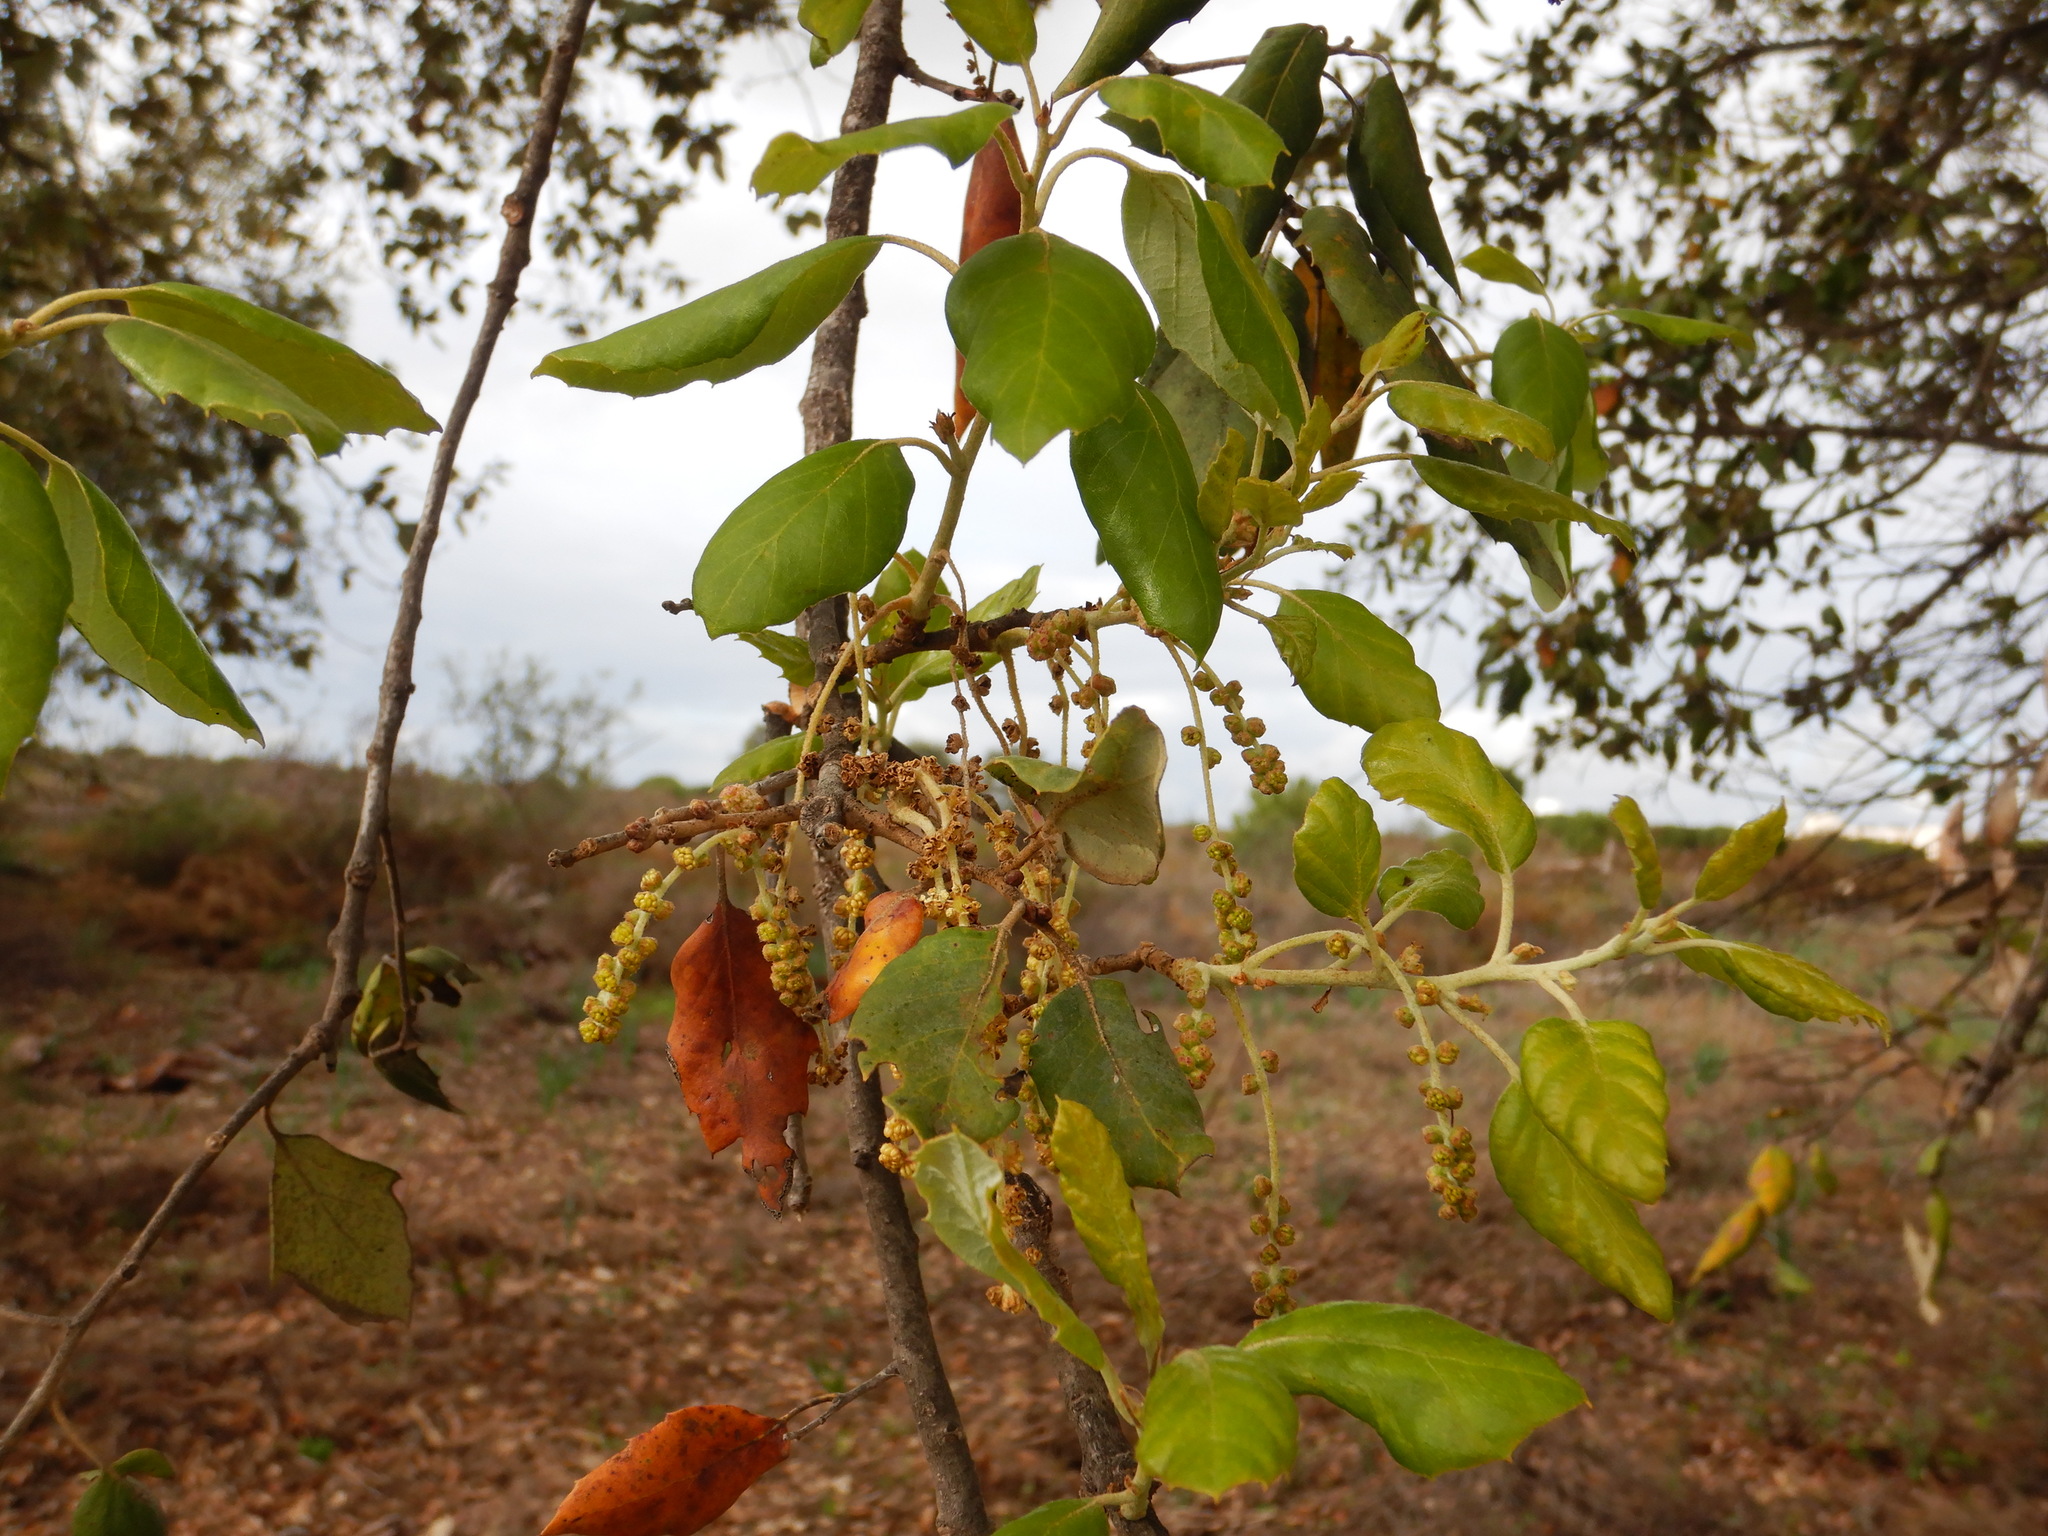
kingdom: Plantae
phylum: Tracheophyta
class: Magnoliopsida
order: Fagales
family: Fagaceae
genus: Quercus
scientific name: Quercus suber
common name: Cork oak
